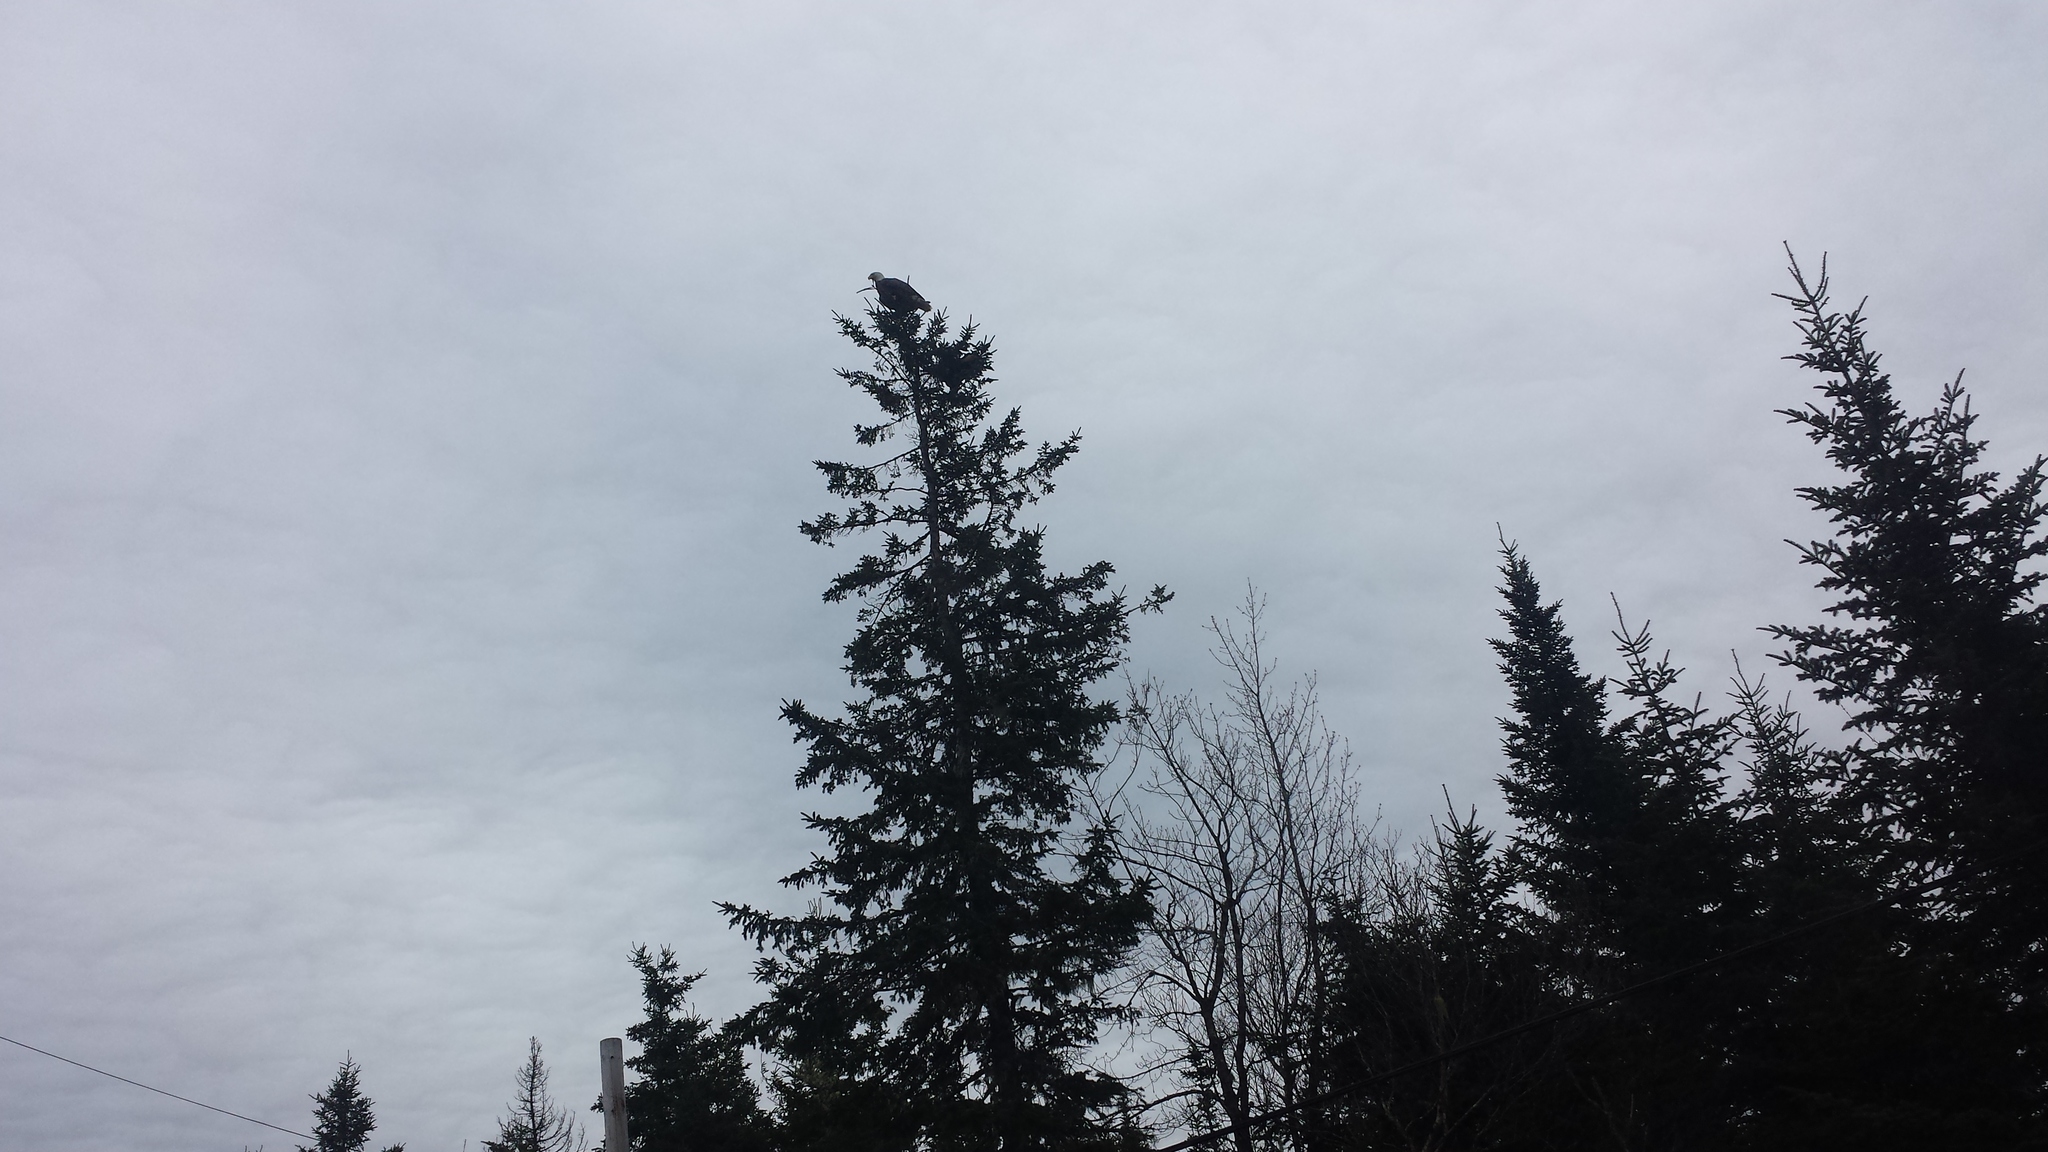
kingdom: Animalia
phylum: Chordata
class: Aves
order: Accipitriformes
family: Accipitridae
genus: Haliaeetus
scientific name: Haliaeetus leucocephalus
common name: Bald eagle
